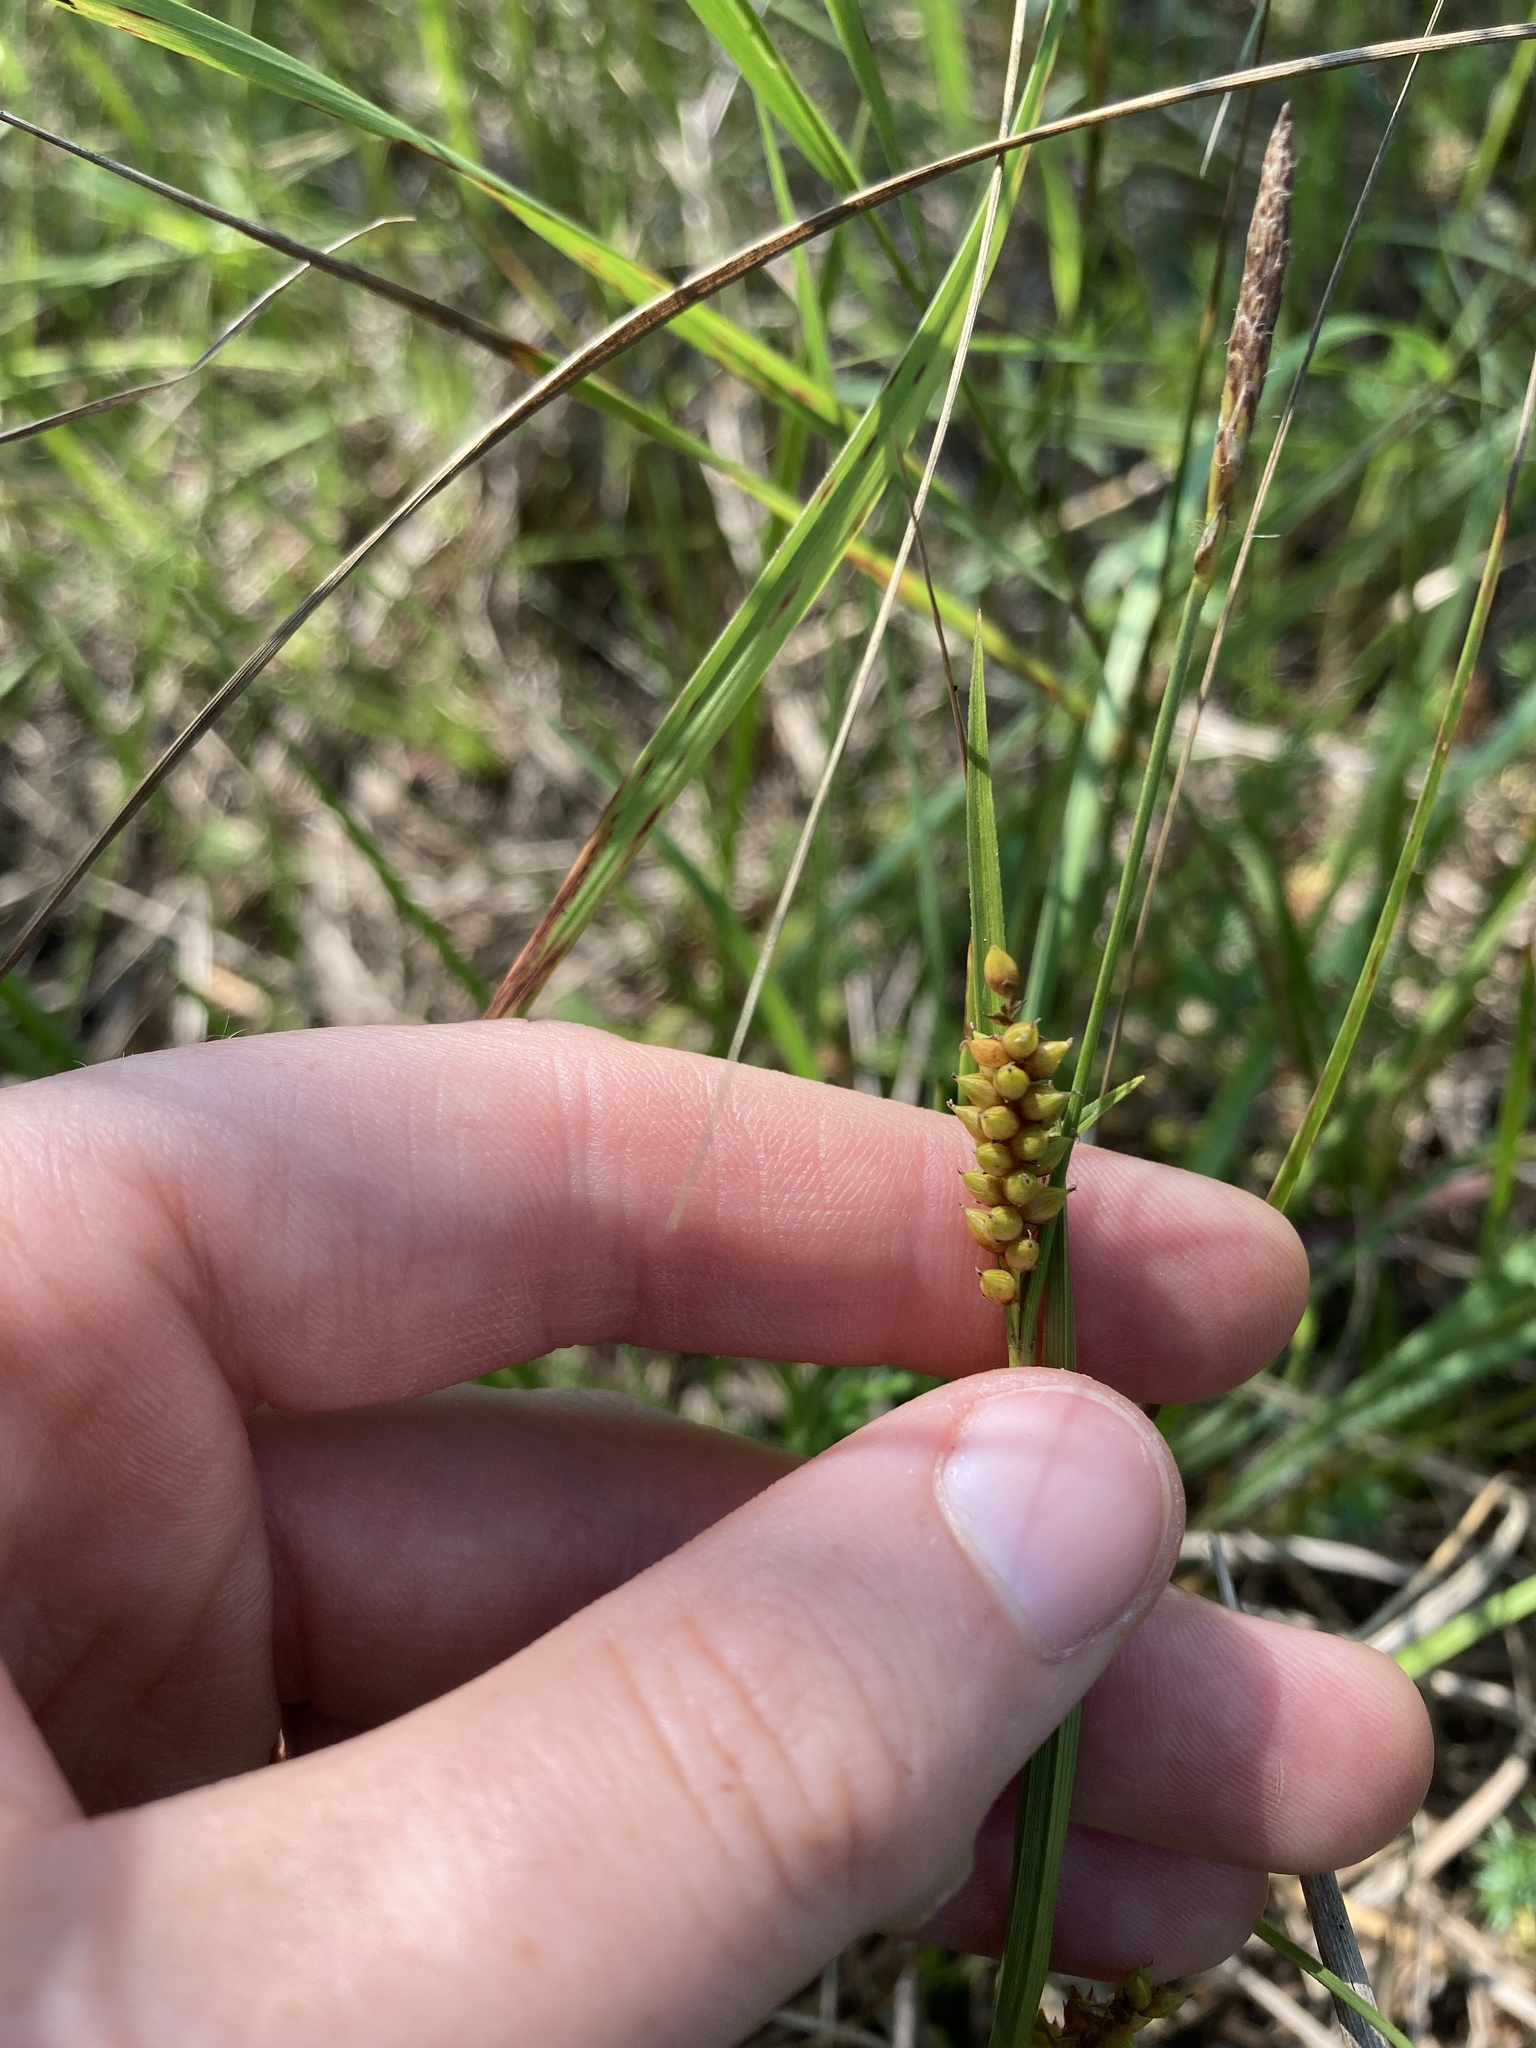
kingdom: Plantae
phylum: Tracheophyta
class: Liliopsida
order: Poales
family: Cyperaceae
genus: Carex
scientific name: Carex crawei
